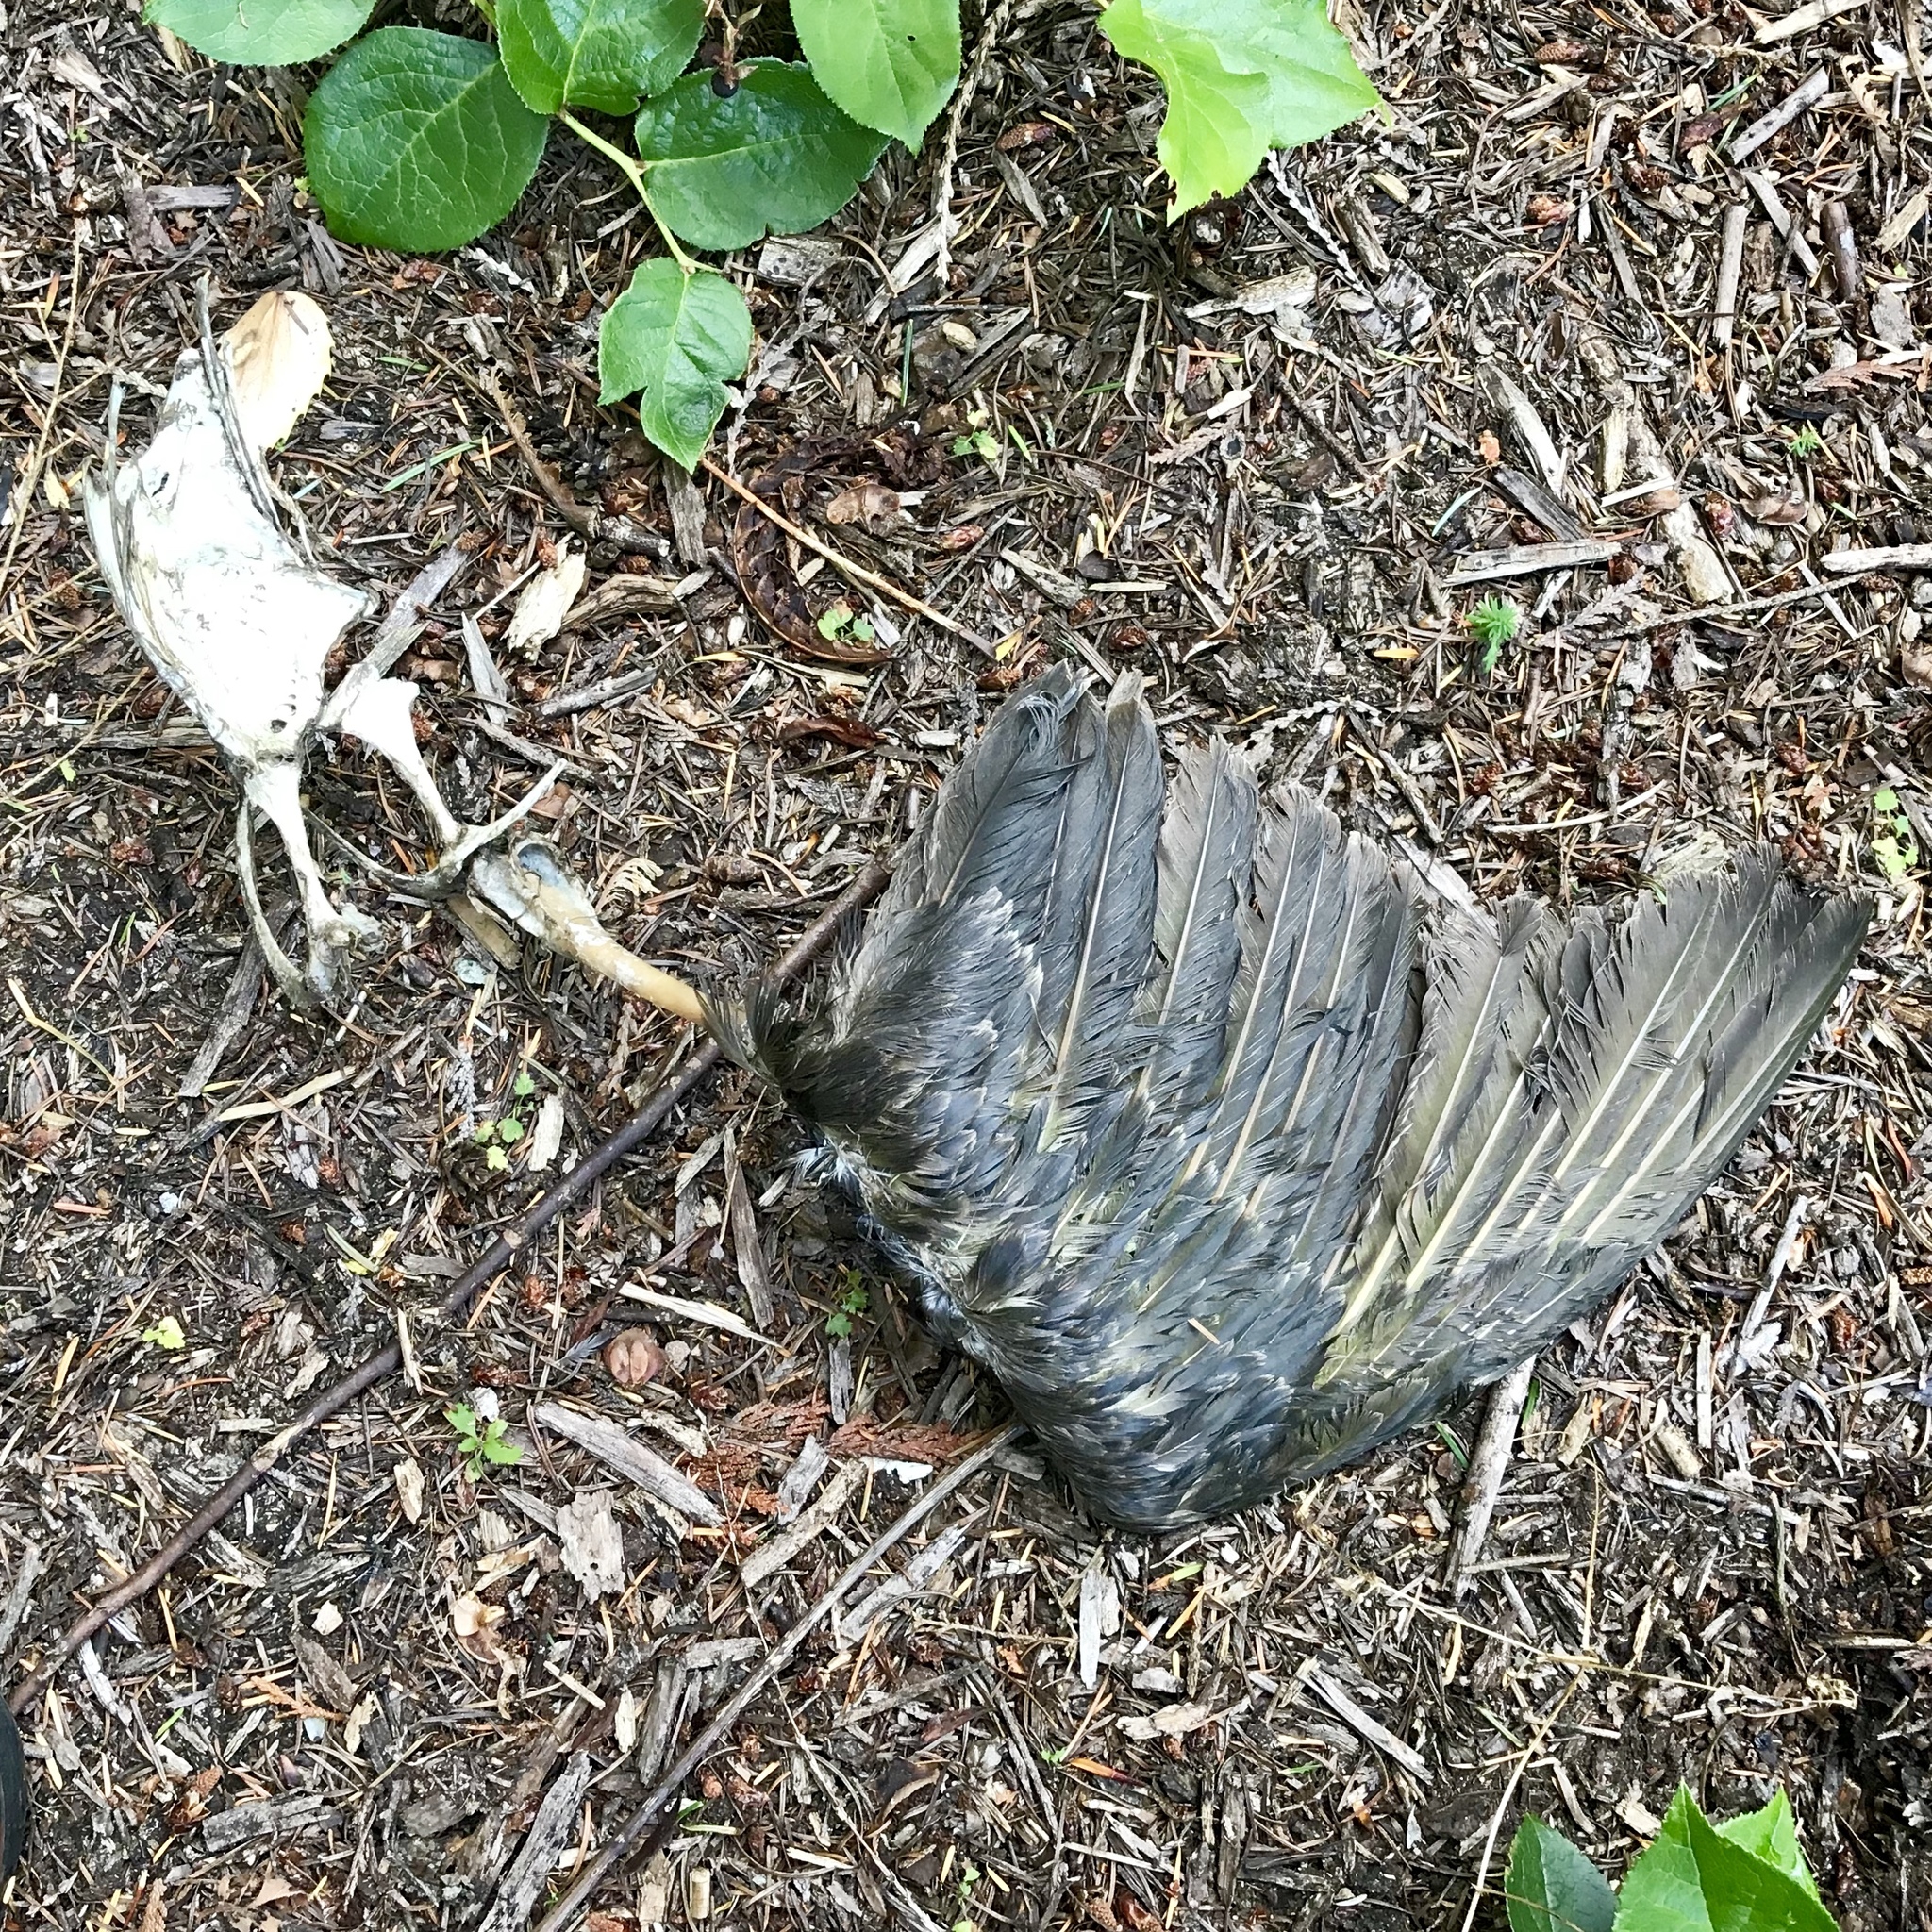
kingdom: Animalia
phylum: Chordata
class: Aves
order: Pelecaniformes
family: Pelecanidae
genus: Pelecanus
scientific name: Pelecanus occidentalis
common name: Brown pelican
